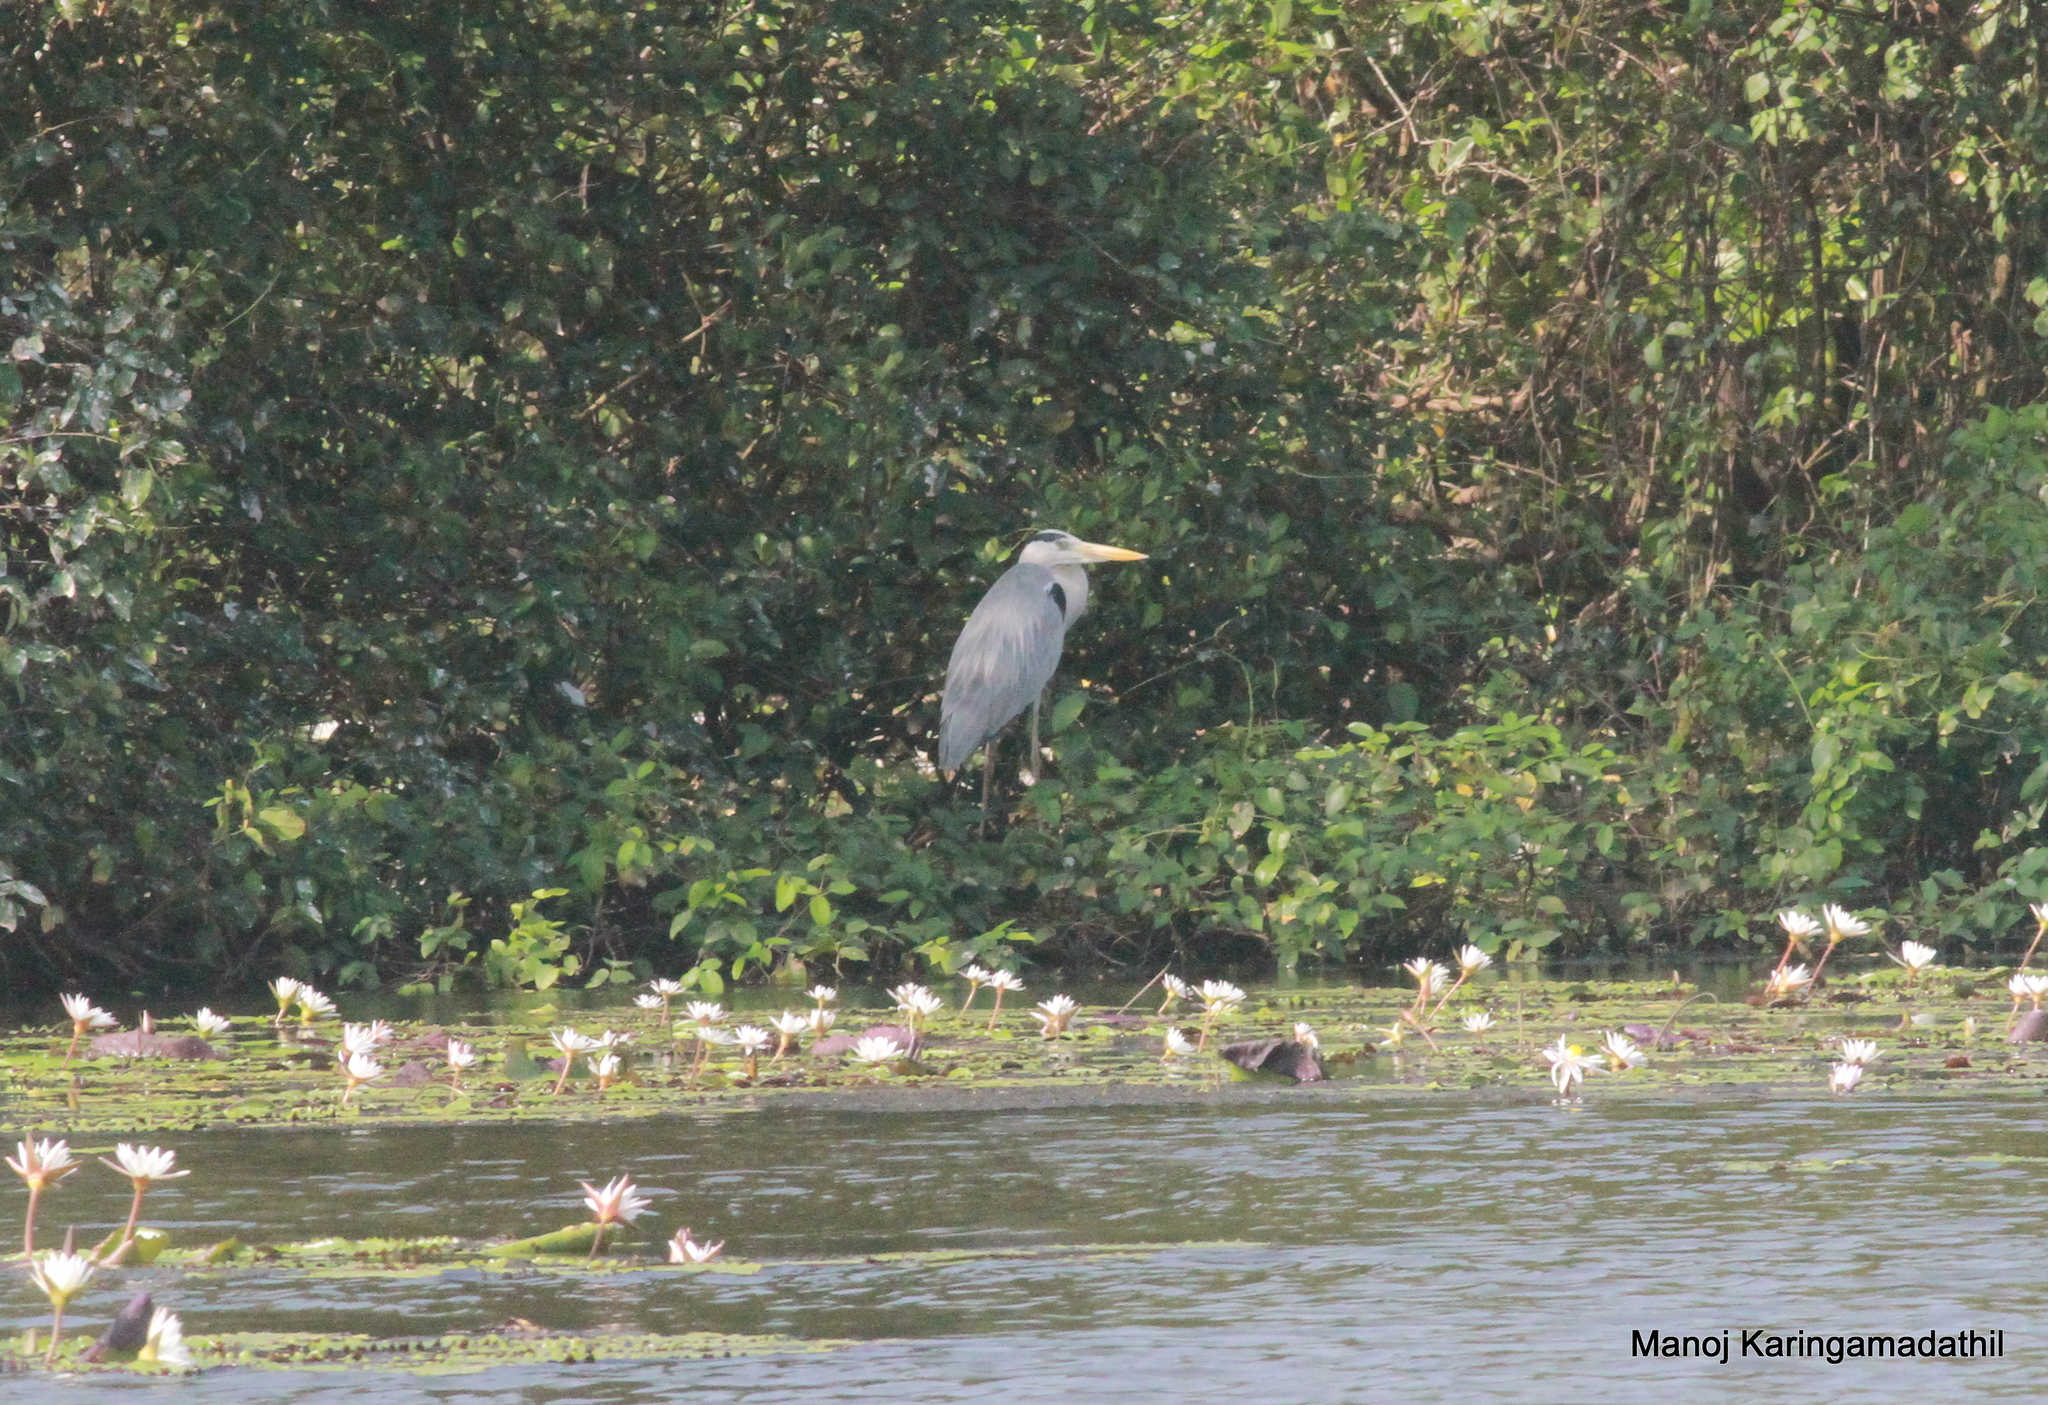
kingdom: Animalia
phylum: Chordata
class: Aves
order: Pelecaniformes
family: Ardeidae
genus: Ardea
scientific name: Ardea cinerea
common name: Grey heron
